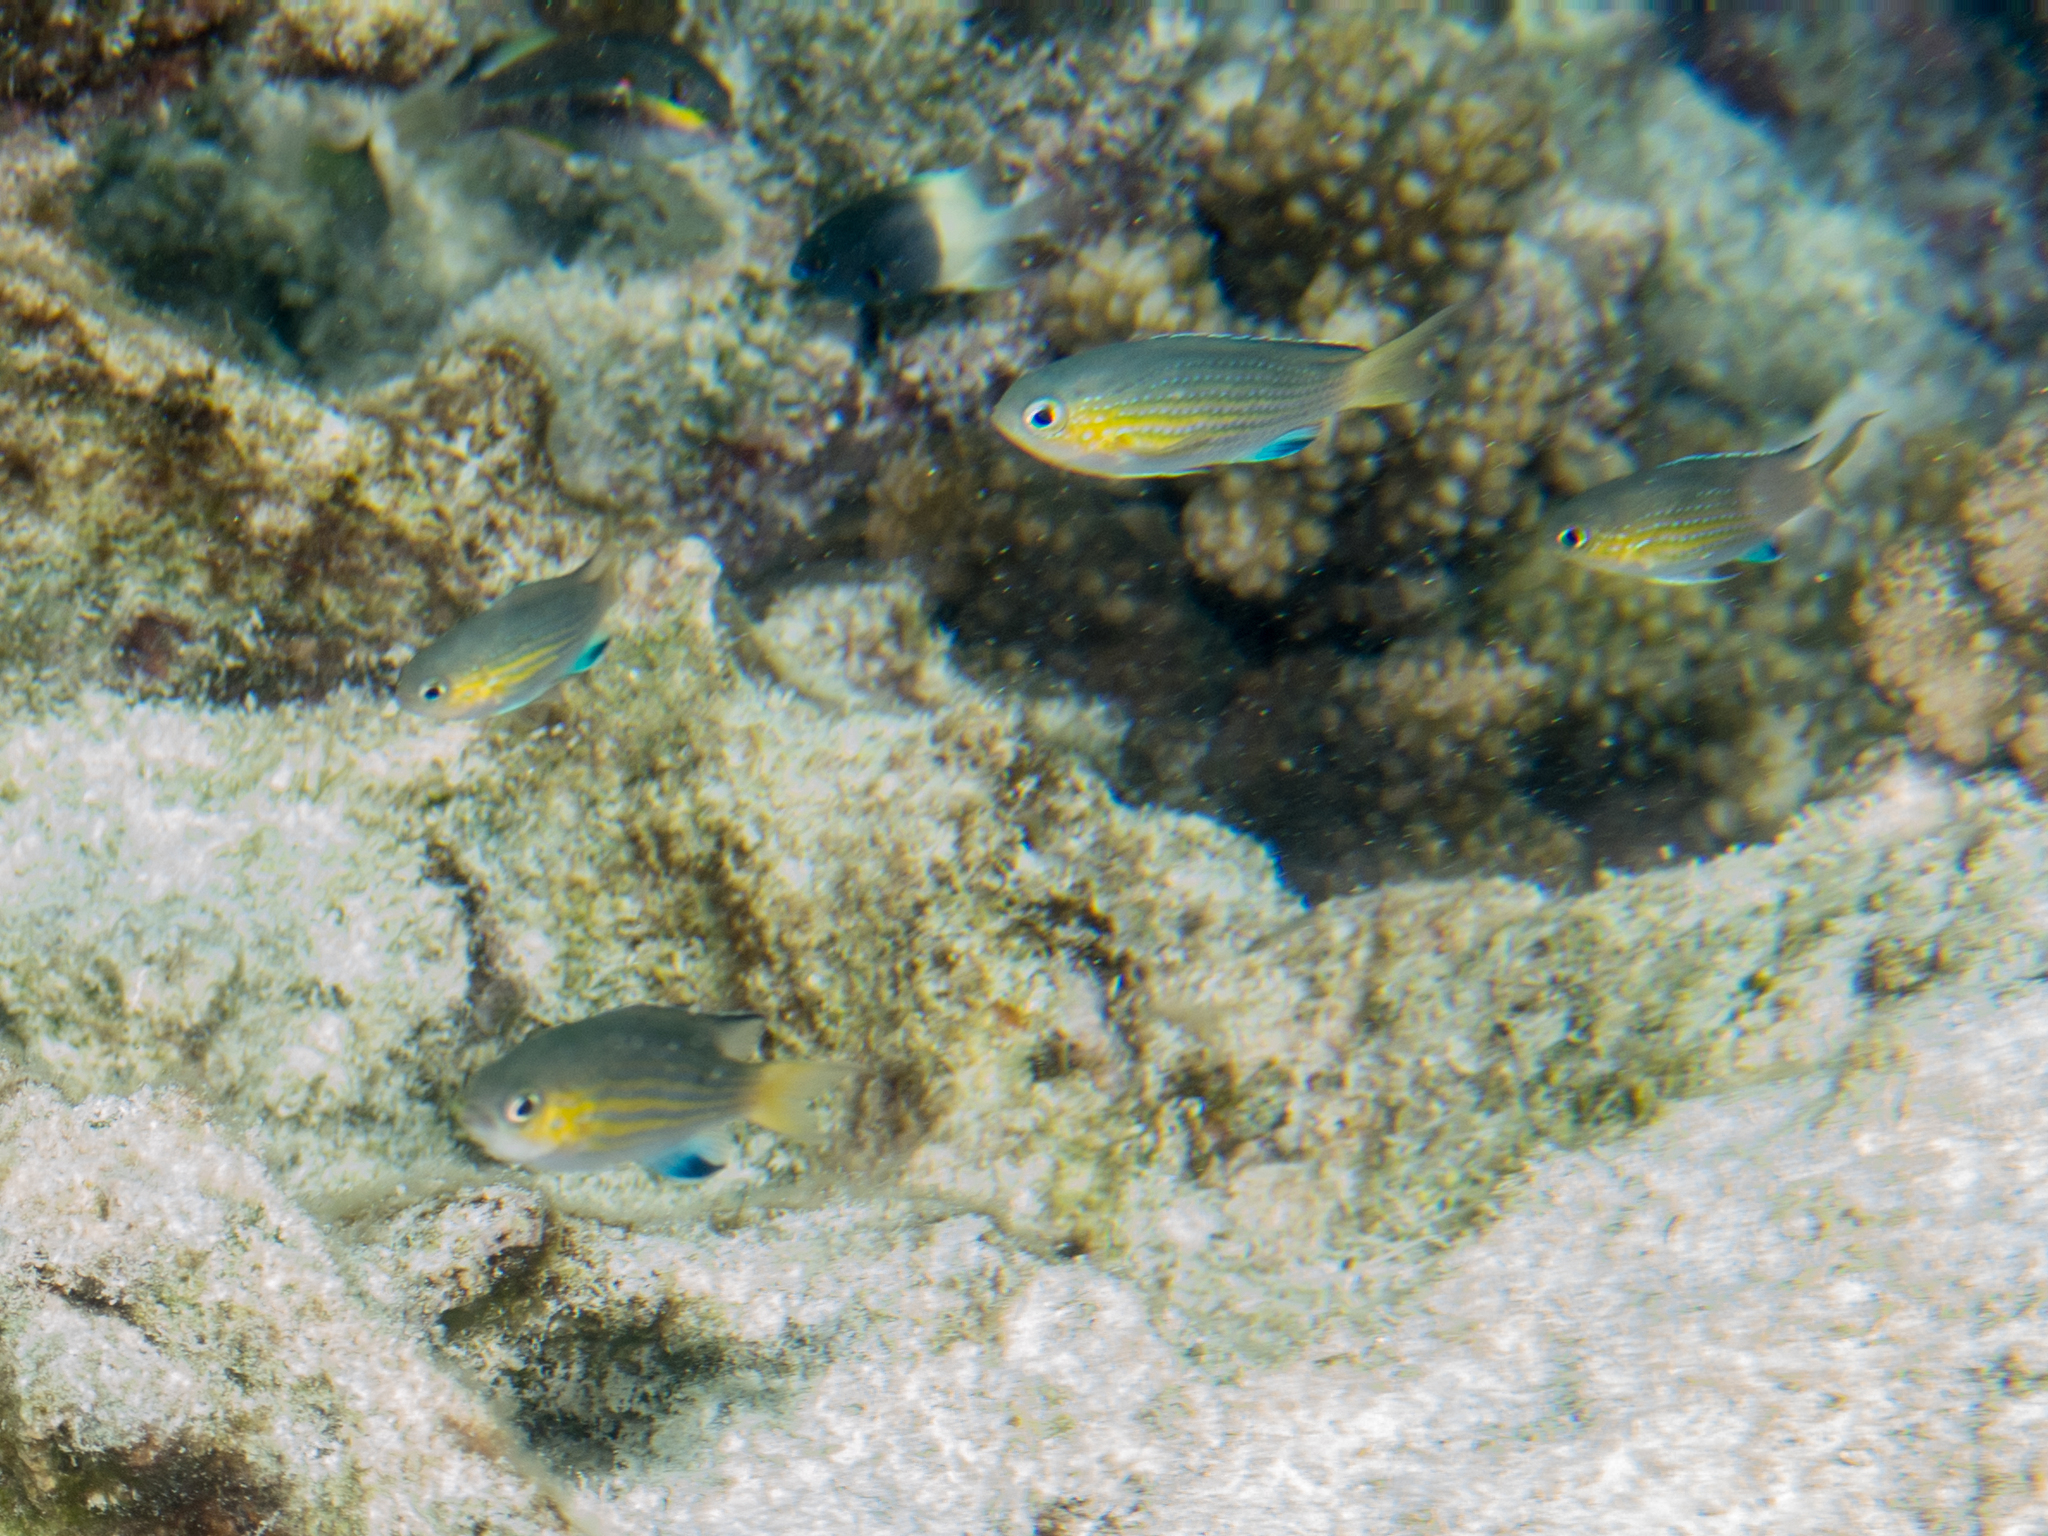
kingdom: Animalia
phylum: Chordata
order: Perciformes
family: Pomacentridae
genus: Chromis
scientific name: Chromis nigrura
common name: Blacktail chromis
